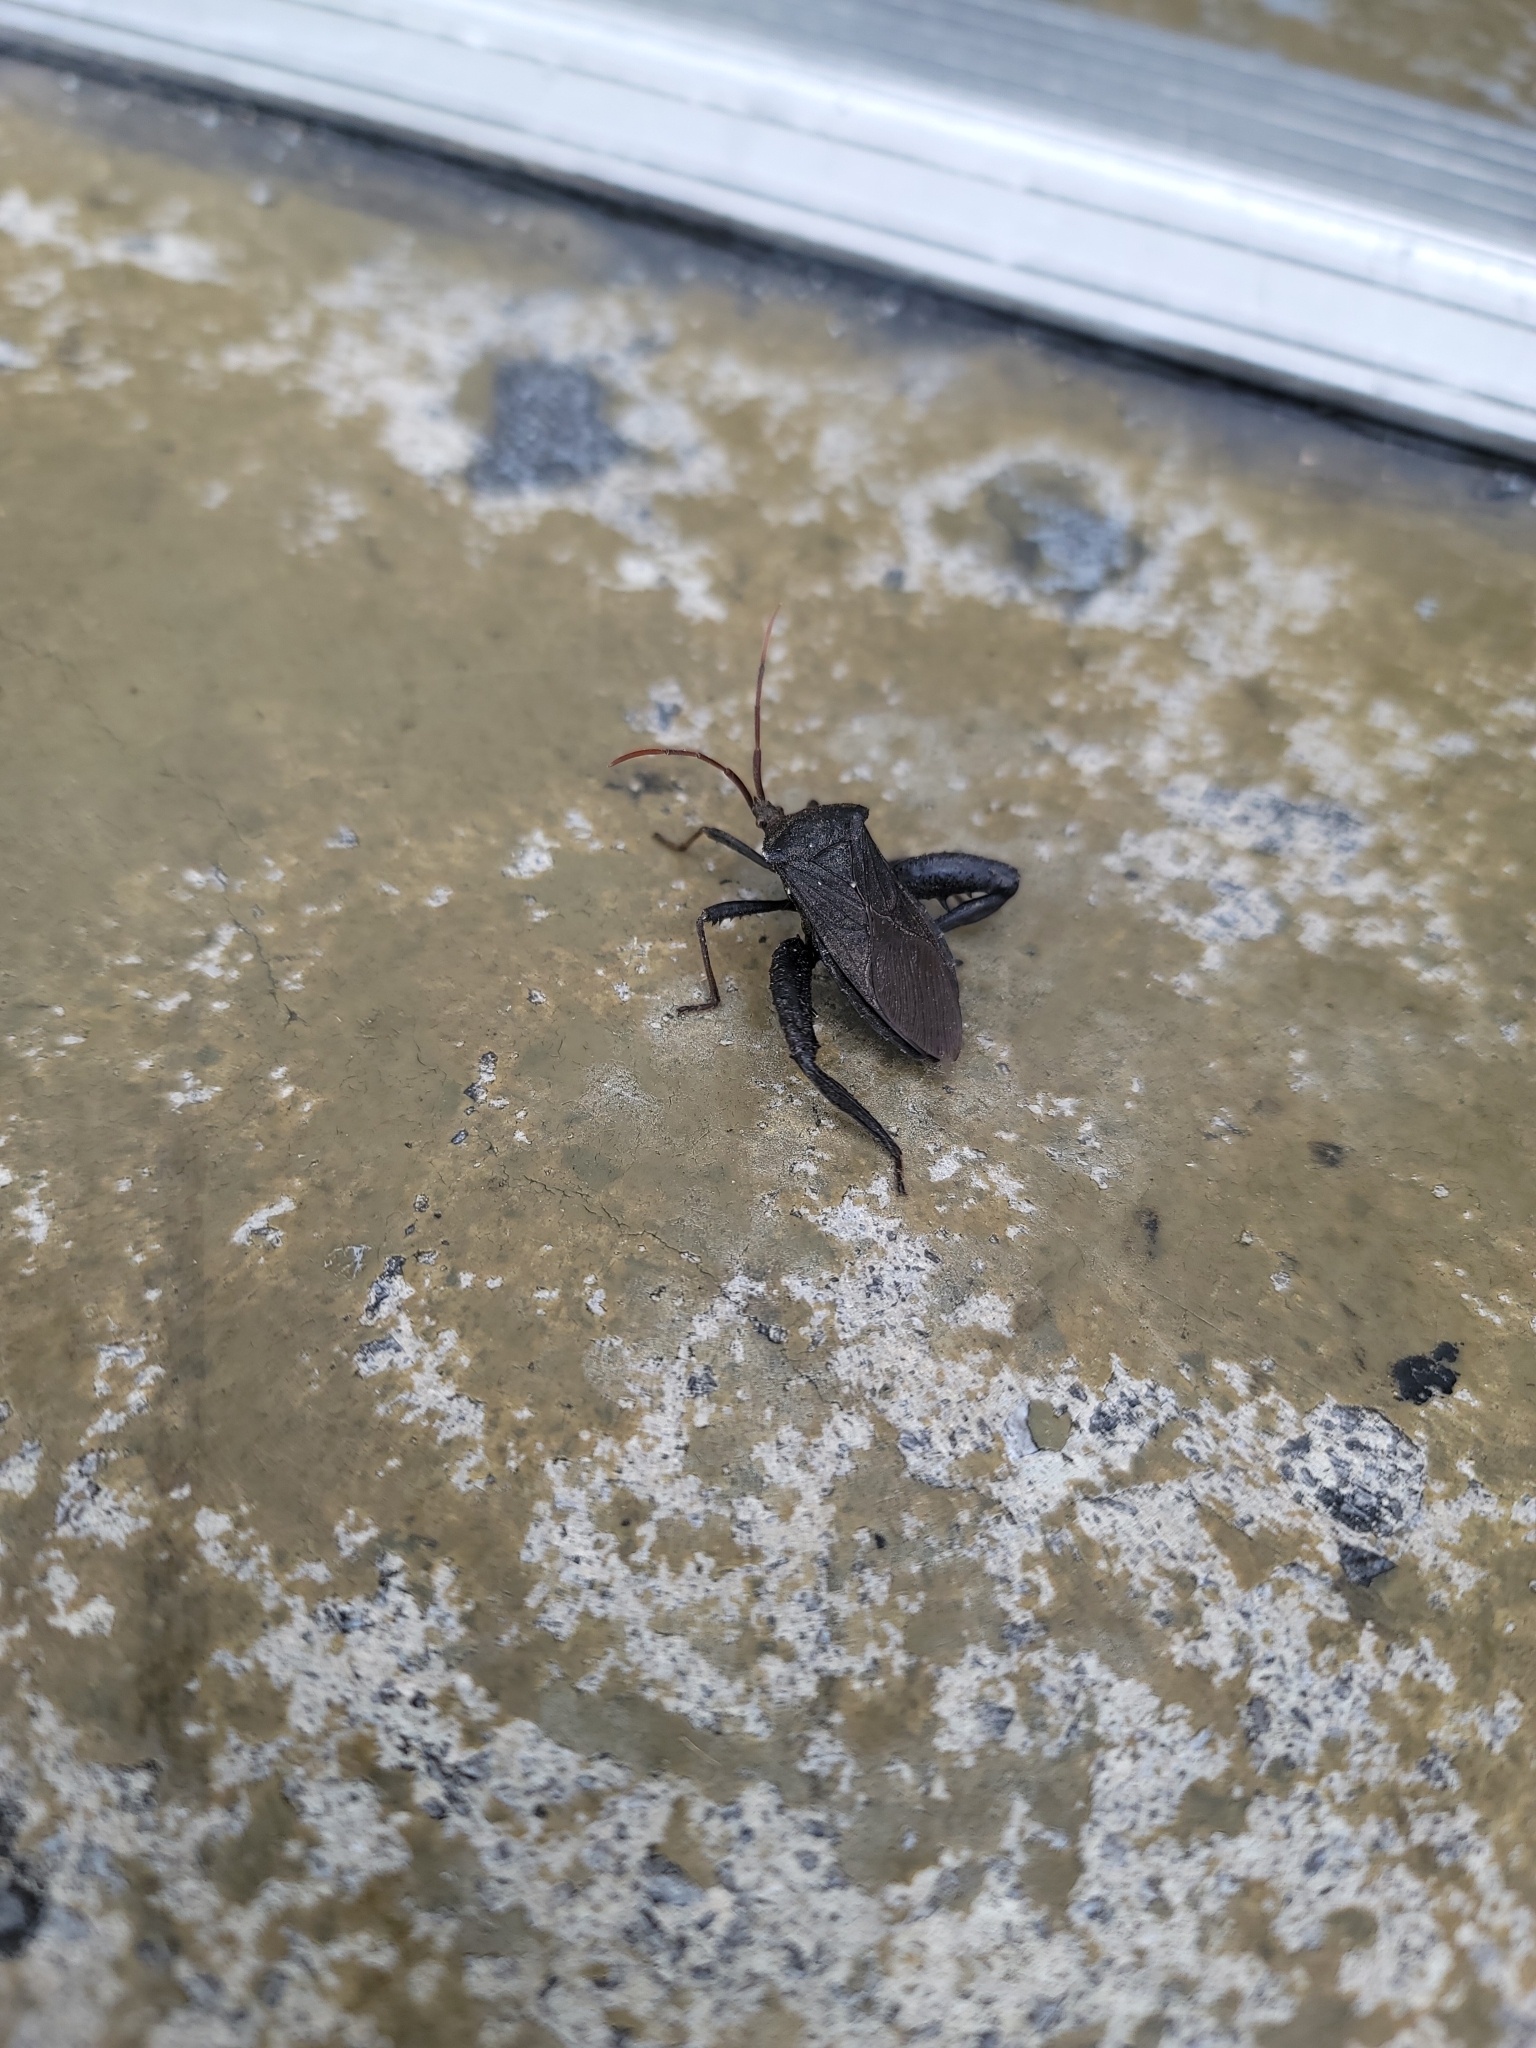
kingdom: Animalia
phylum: Arthropoda
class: Insecta
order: Hemiptera
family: Coreidae
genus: Acanthocephala
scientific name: Acanthocephala femorata
